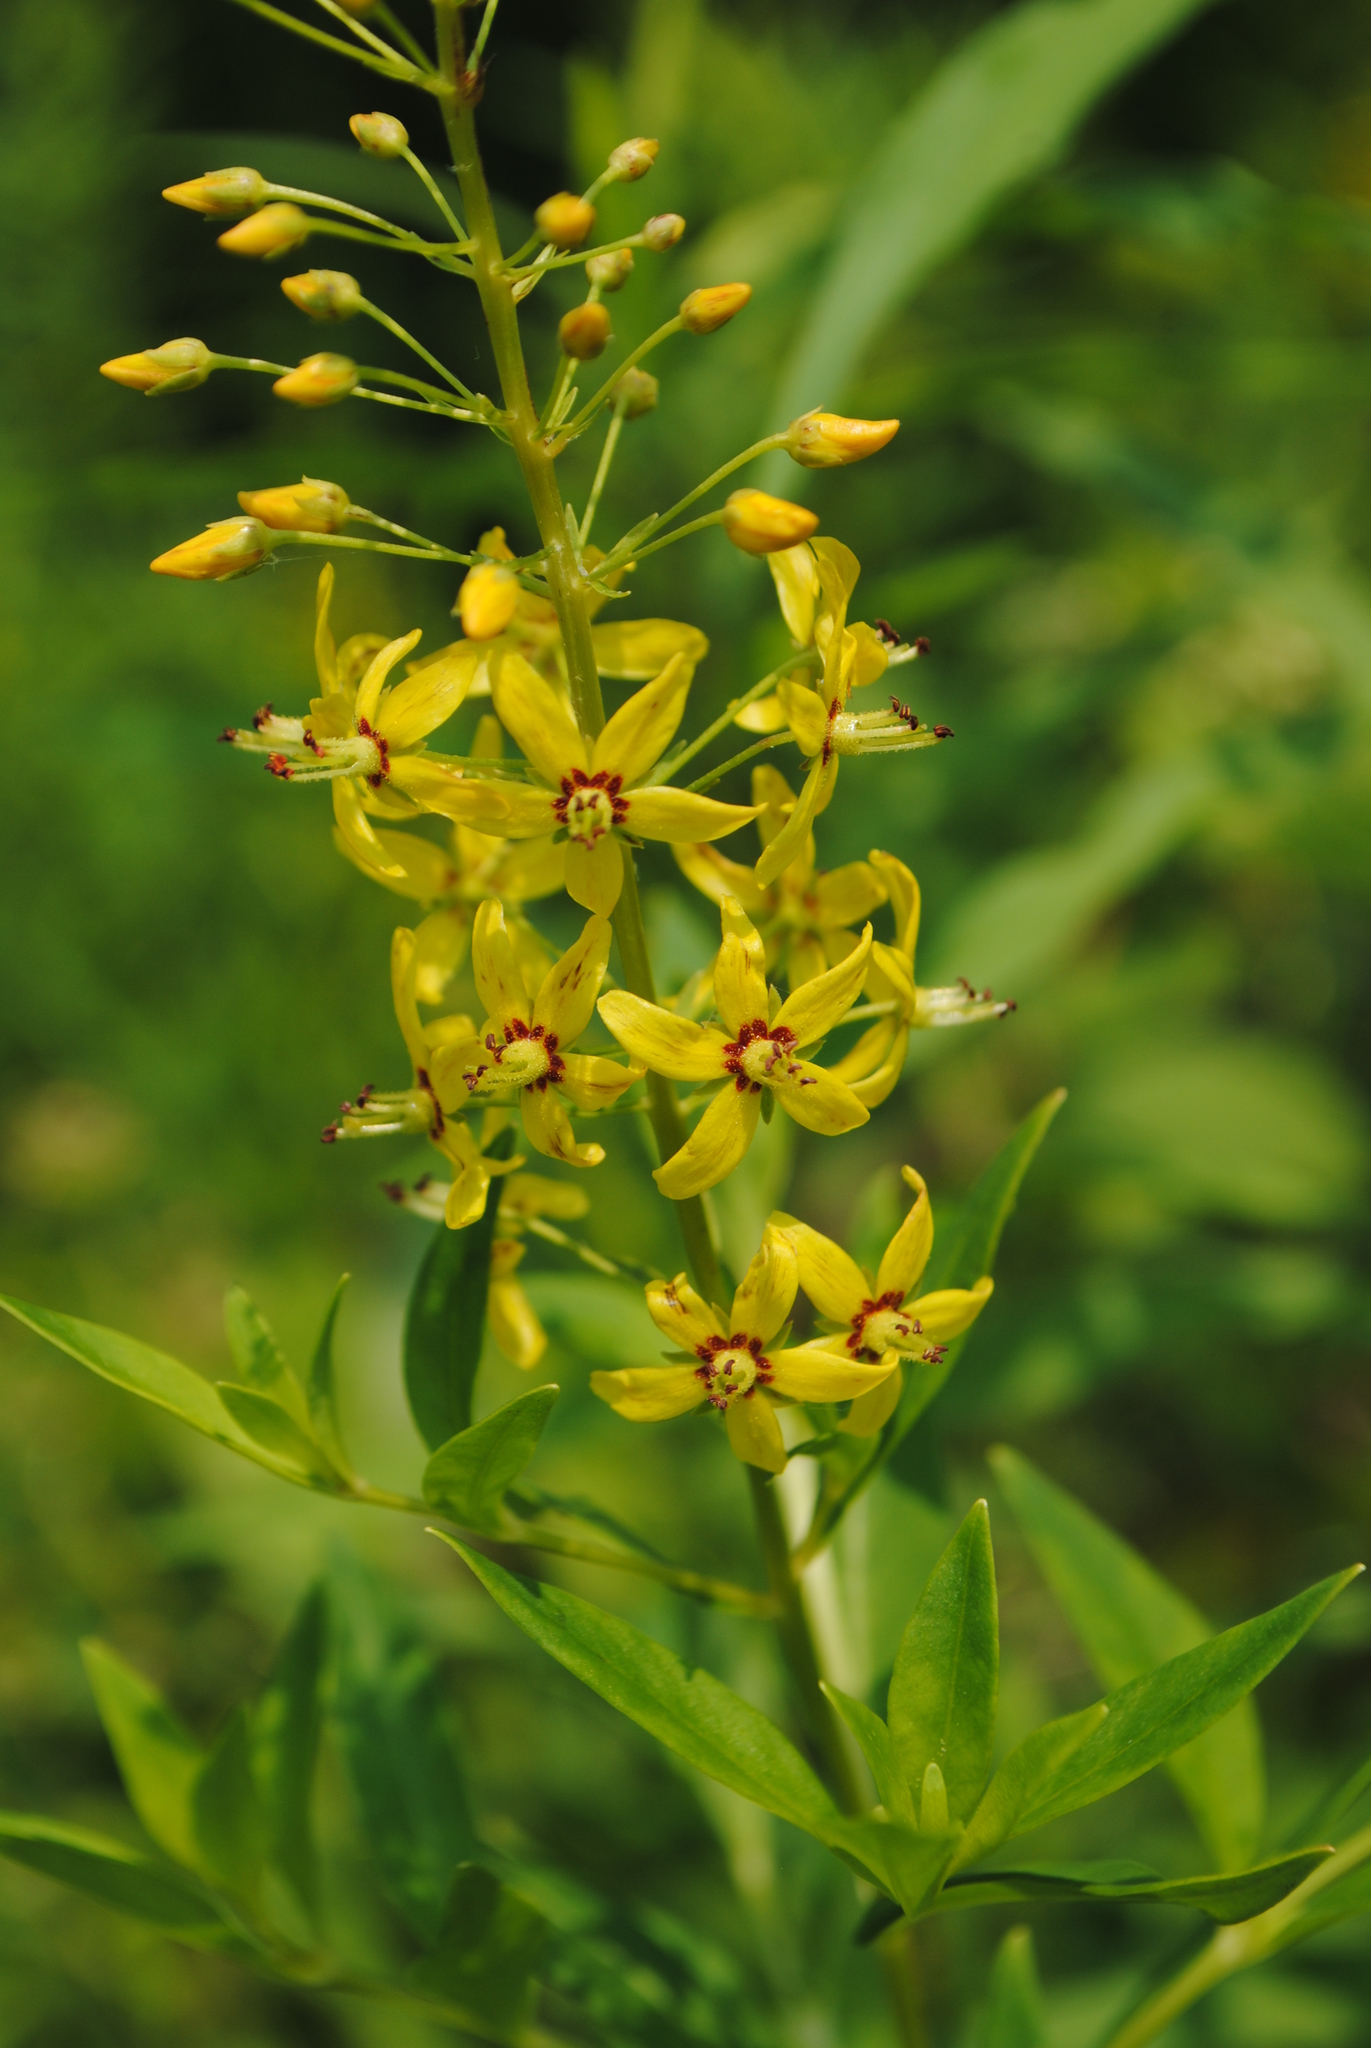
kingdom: Plantae
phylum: Tracheophyta
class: Magnoliopsida
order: Ericales
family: Primulaceae
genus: Lysimachia
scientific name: Lysimachia terrestris
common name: Lake loosestrife
